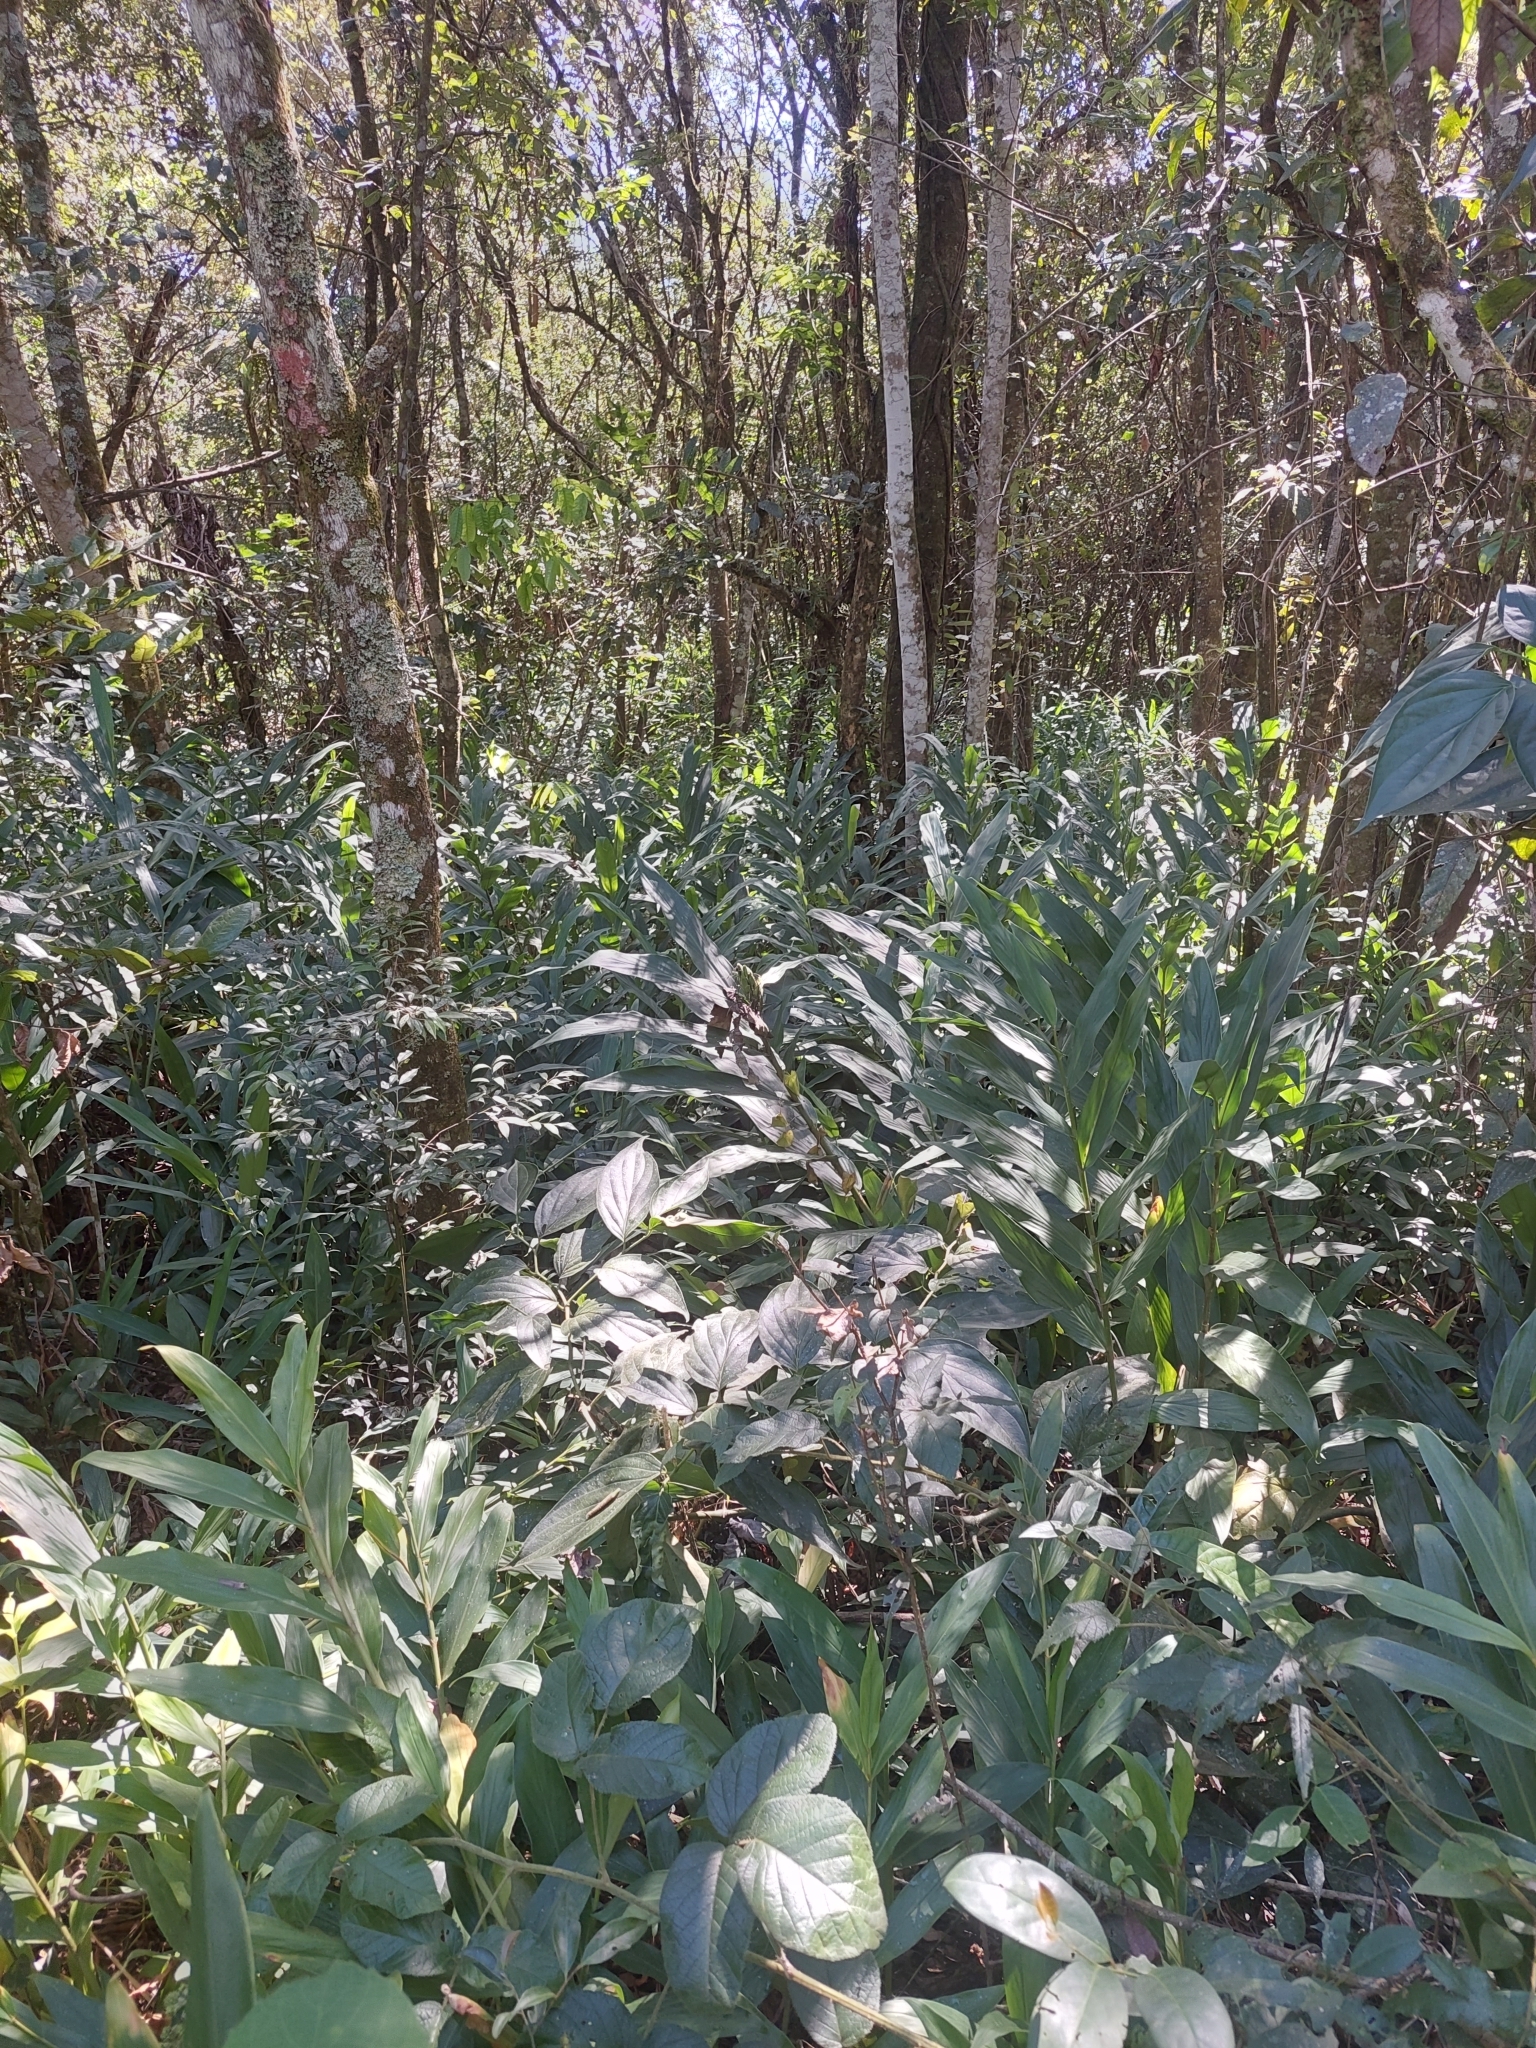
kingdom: Plantae
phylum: Tracheophyta
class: Liliopsida
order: Zingiberales
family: Zingiberaceae
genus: Hedychium
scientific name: Hedychium coronarium
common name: White garland-lily
